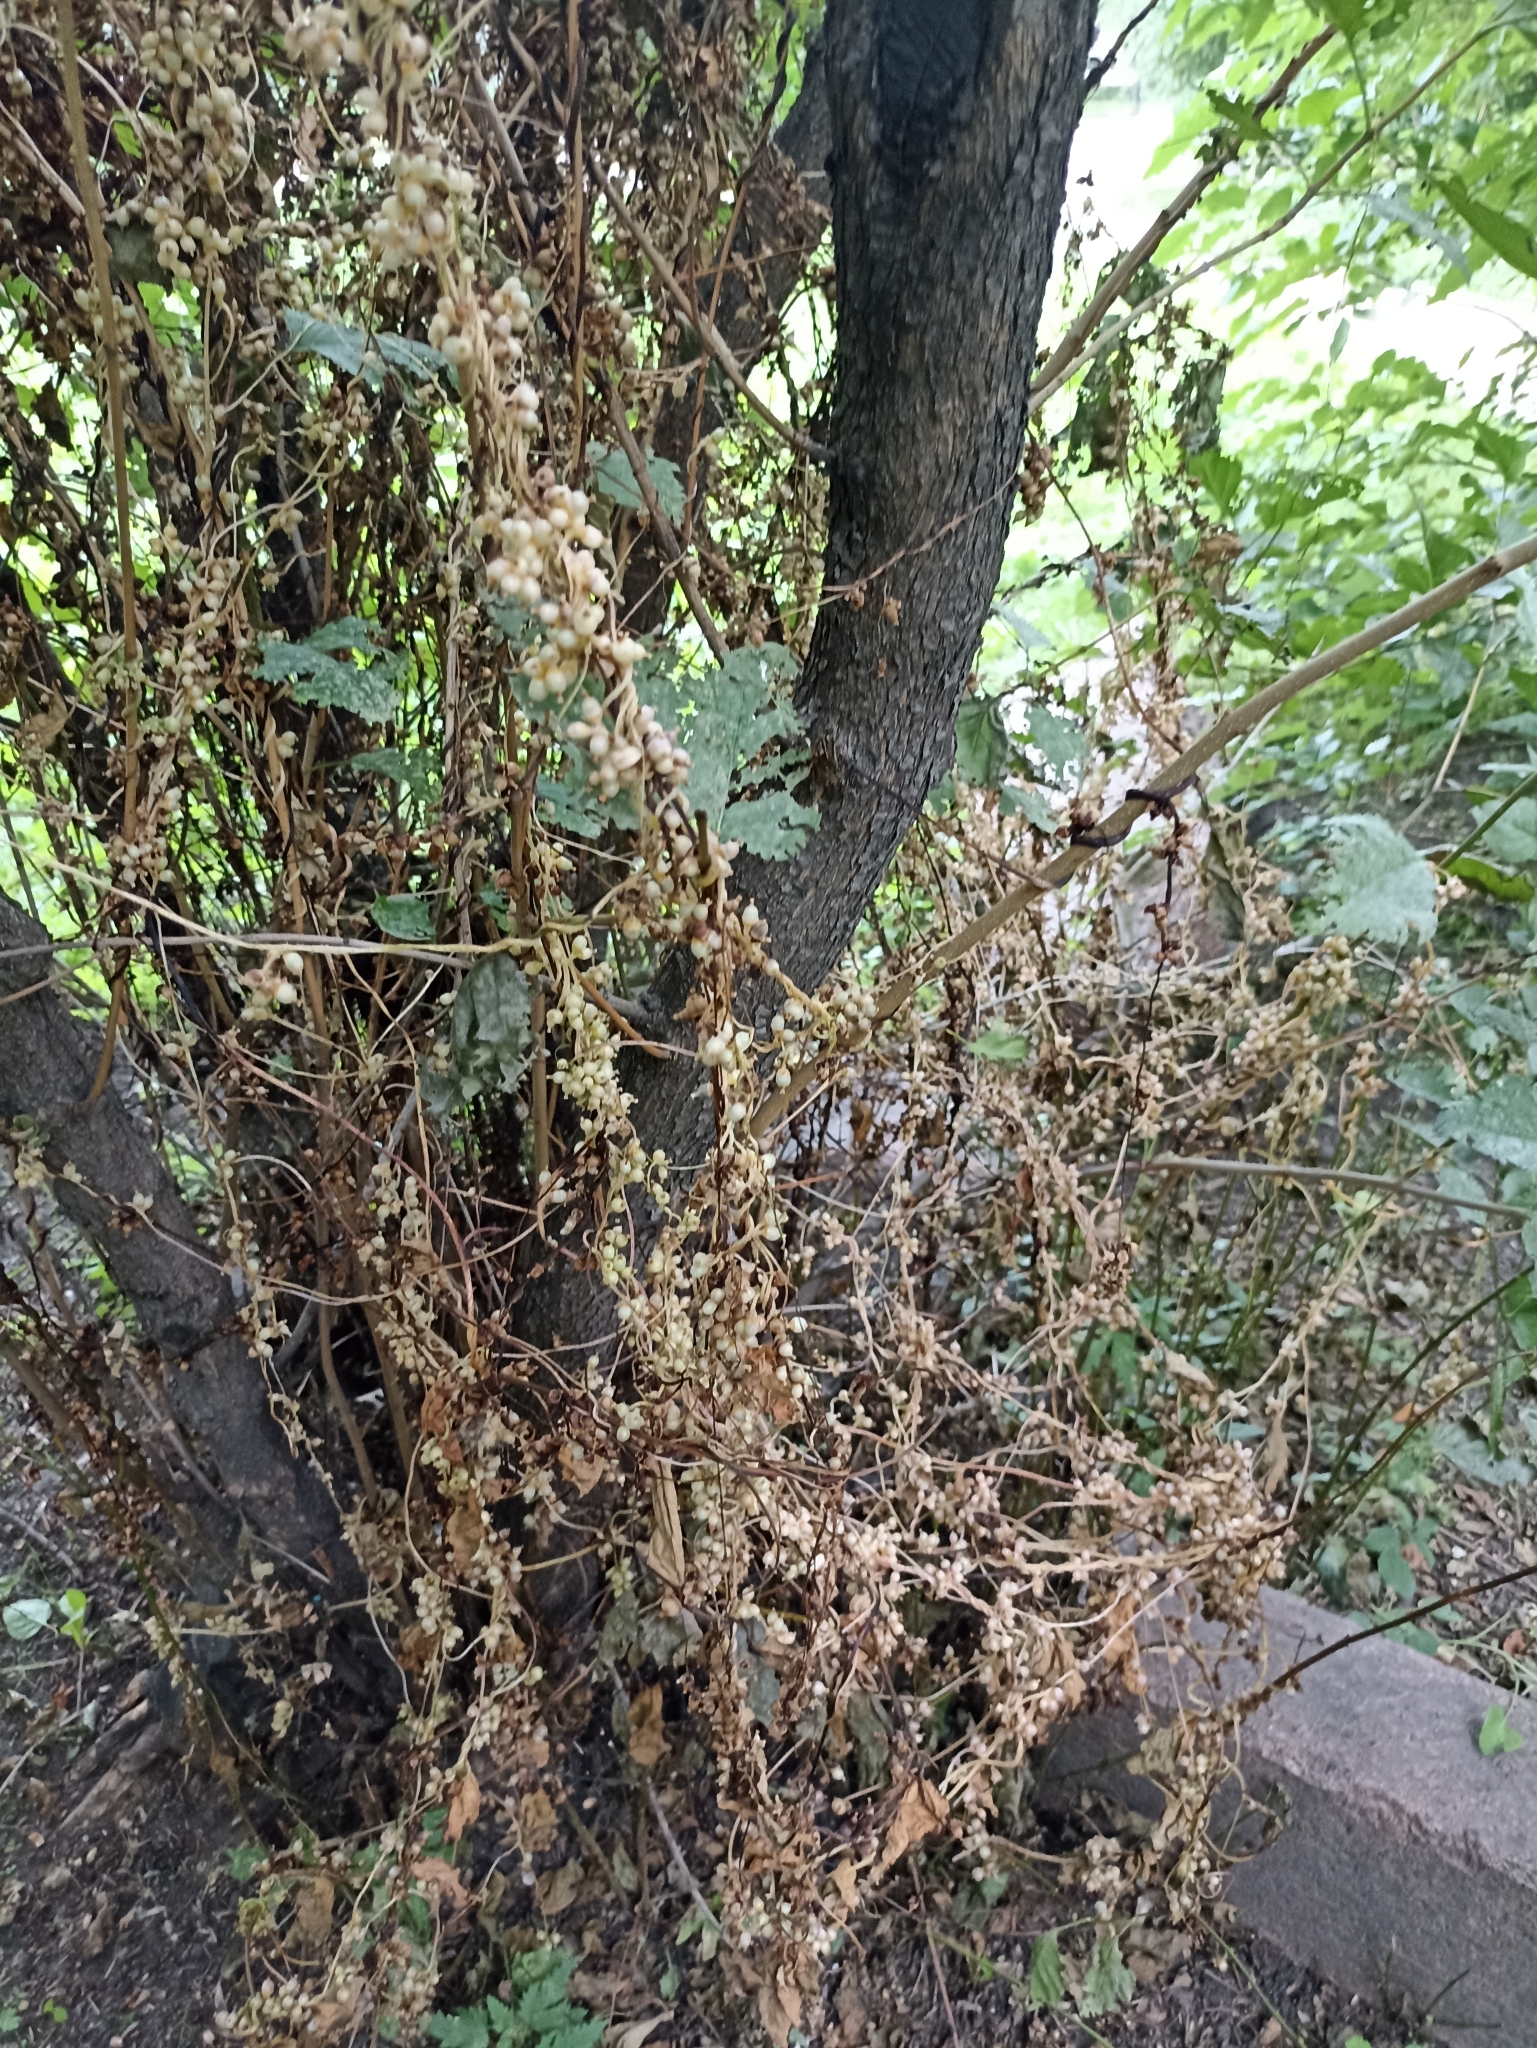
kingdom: Plantae
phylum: Tracheophyta
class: Magnoliopsida
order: Solanales
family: Convolvulaceae
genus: Cuscuta
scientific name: Cuscuta lupuliformis
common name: Hop dodder
